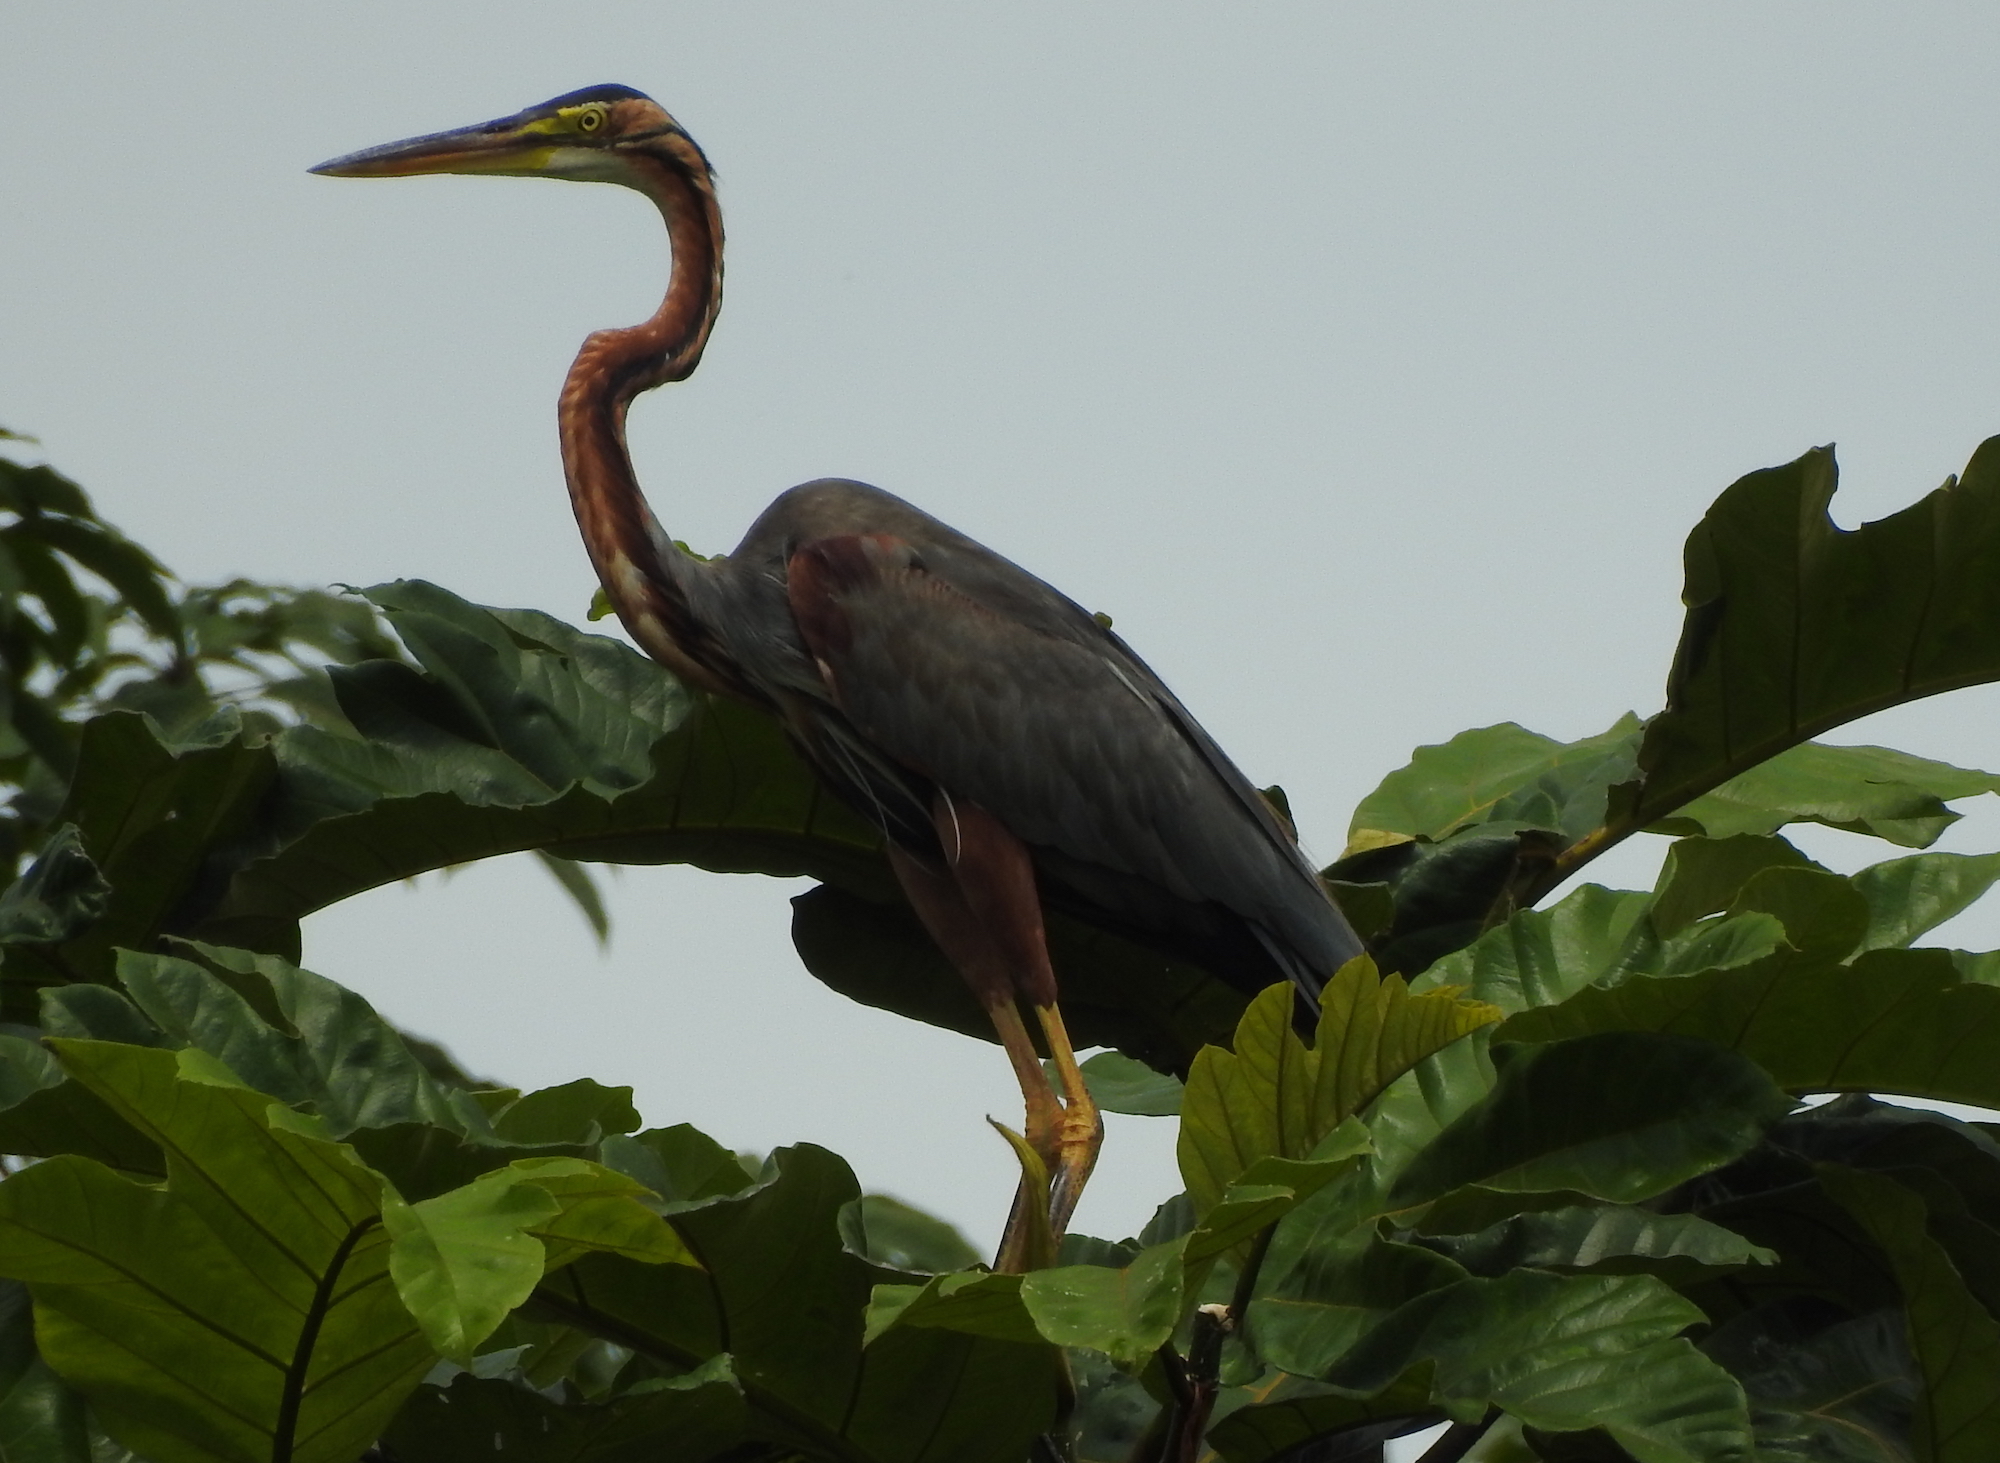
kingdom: Animalia
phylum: Chordata
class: Aves
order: Pelecaniformes
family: Ardeidae
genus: Ardea
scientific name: Ardea purpurea
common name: Purple heron
